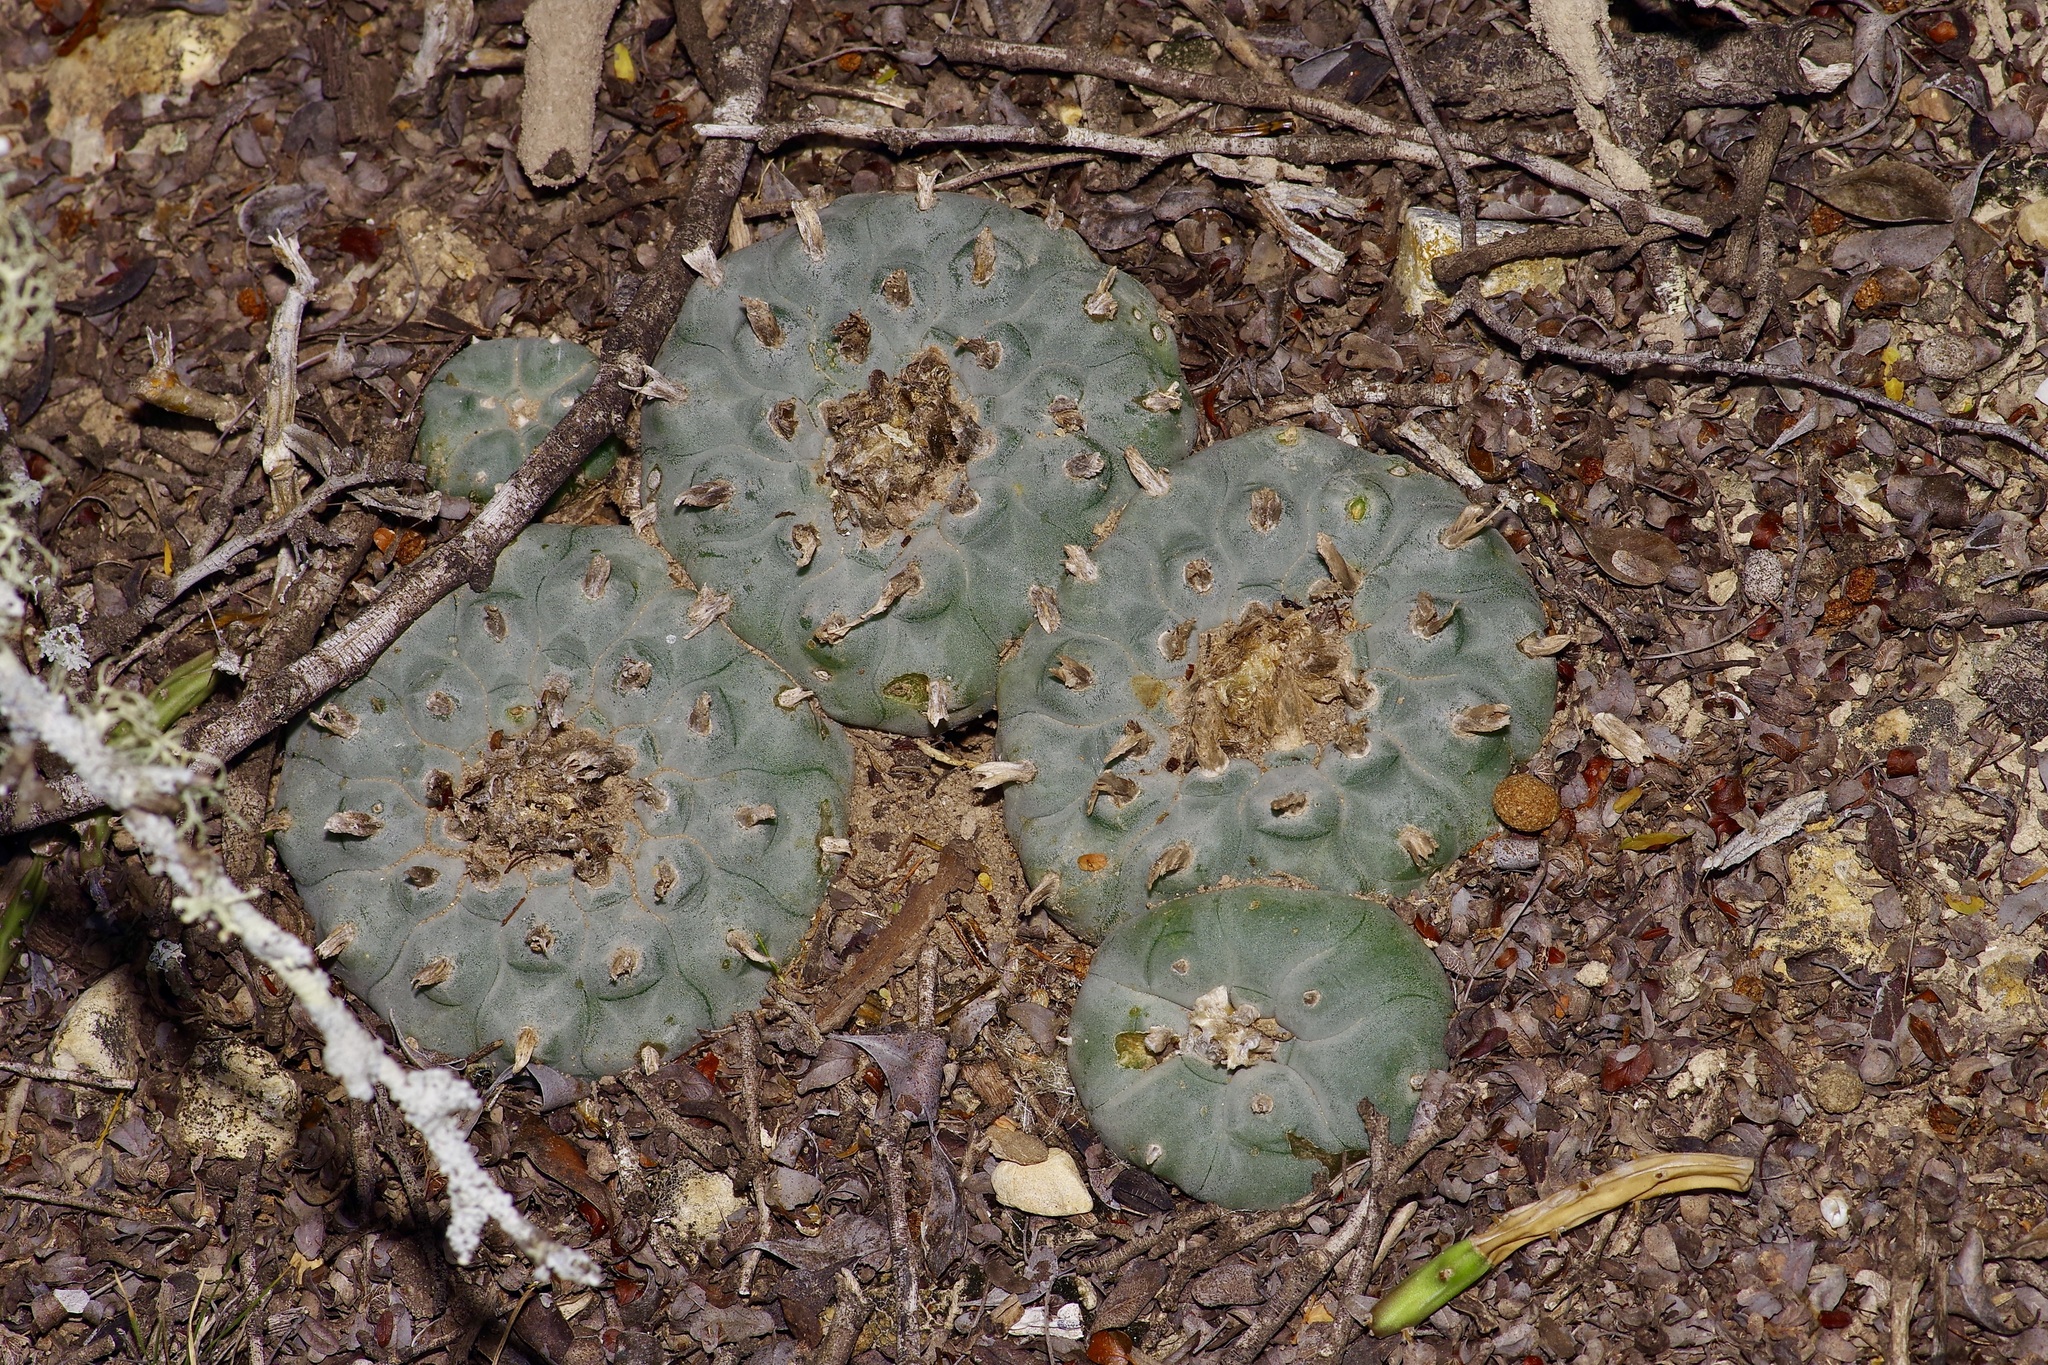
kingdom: Plantae
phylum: Tracheophyta
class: Magnoliopsida
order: Caryophyllales
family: Cactaceae
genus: Lophophora
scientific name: Lophophora williamsii
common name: Indian-dope
